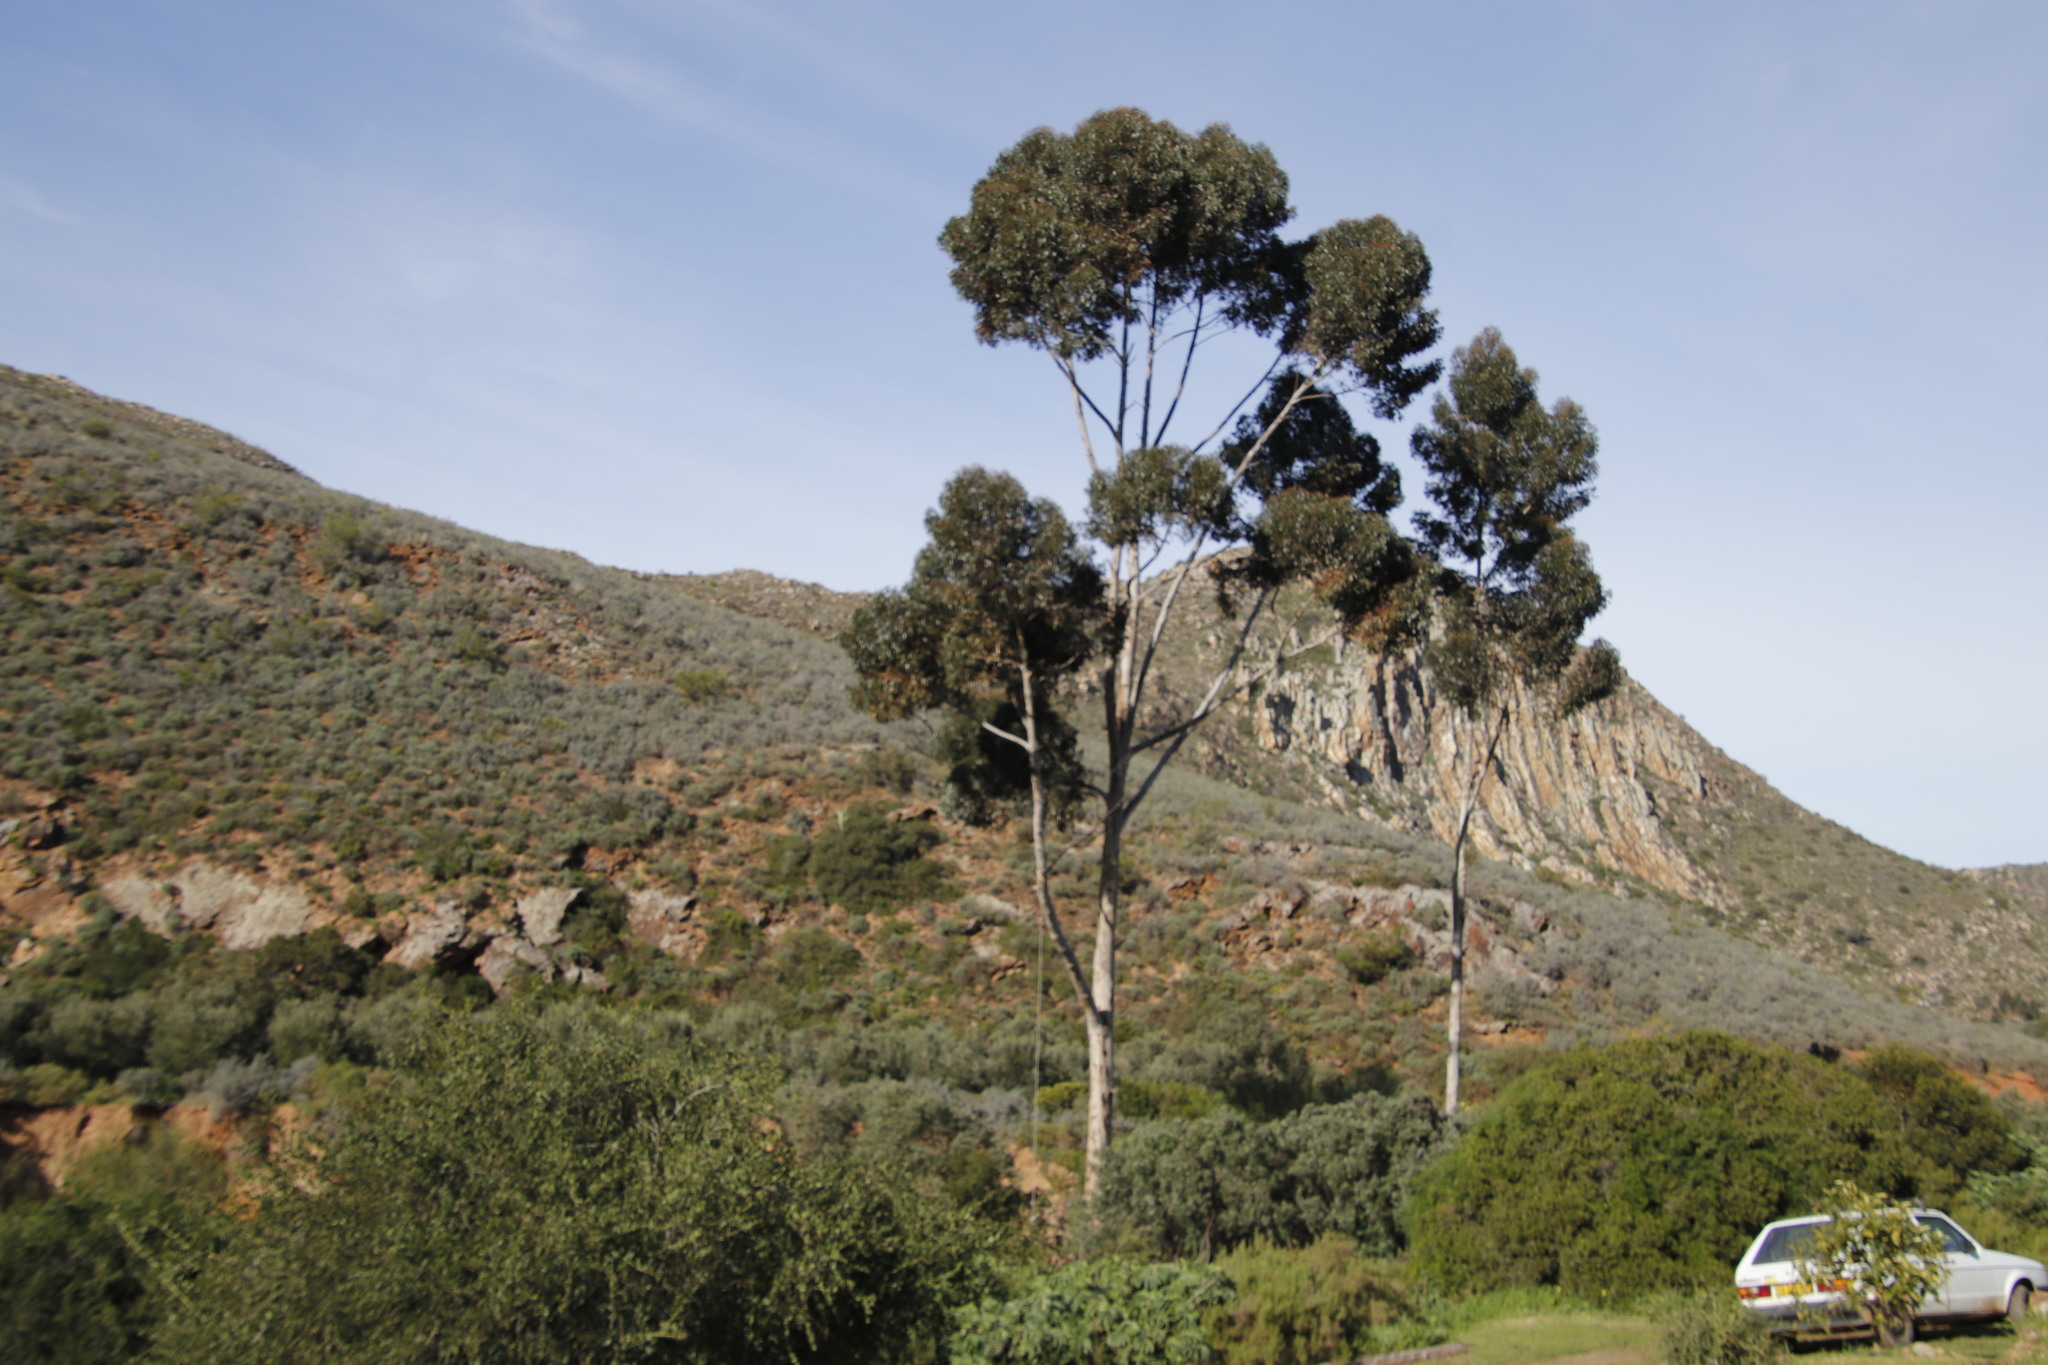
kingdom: Plantae
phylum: Tracheophyta
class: Magnoliopsida
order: Myrtales
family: Myrtaceae
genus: Eucalyptus
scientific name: Eucalyptus cladocalyx
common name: Sugargum
